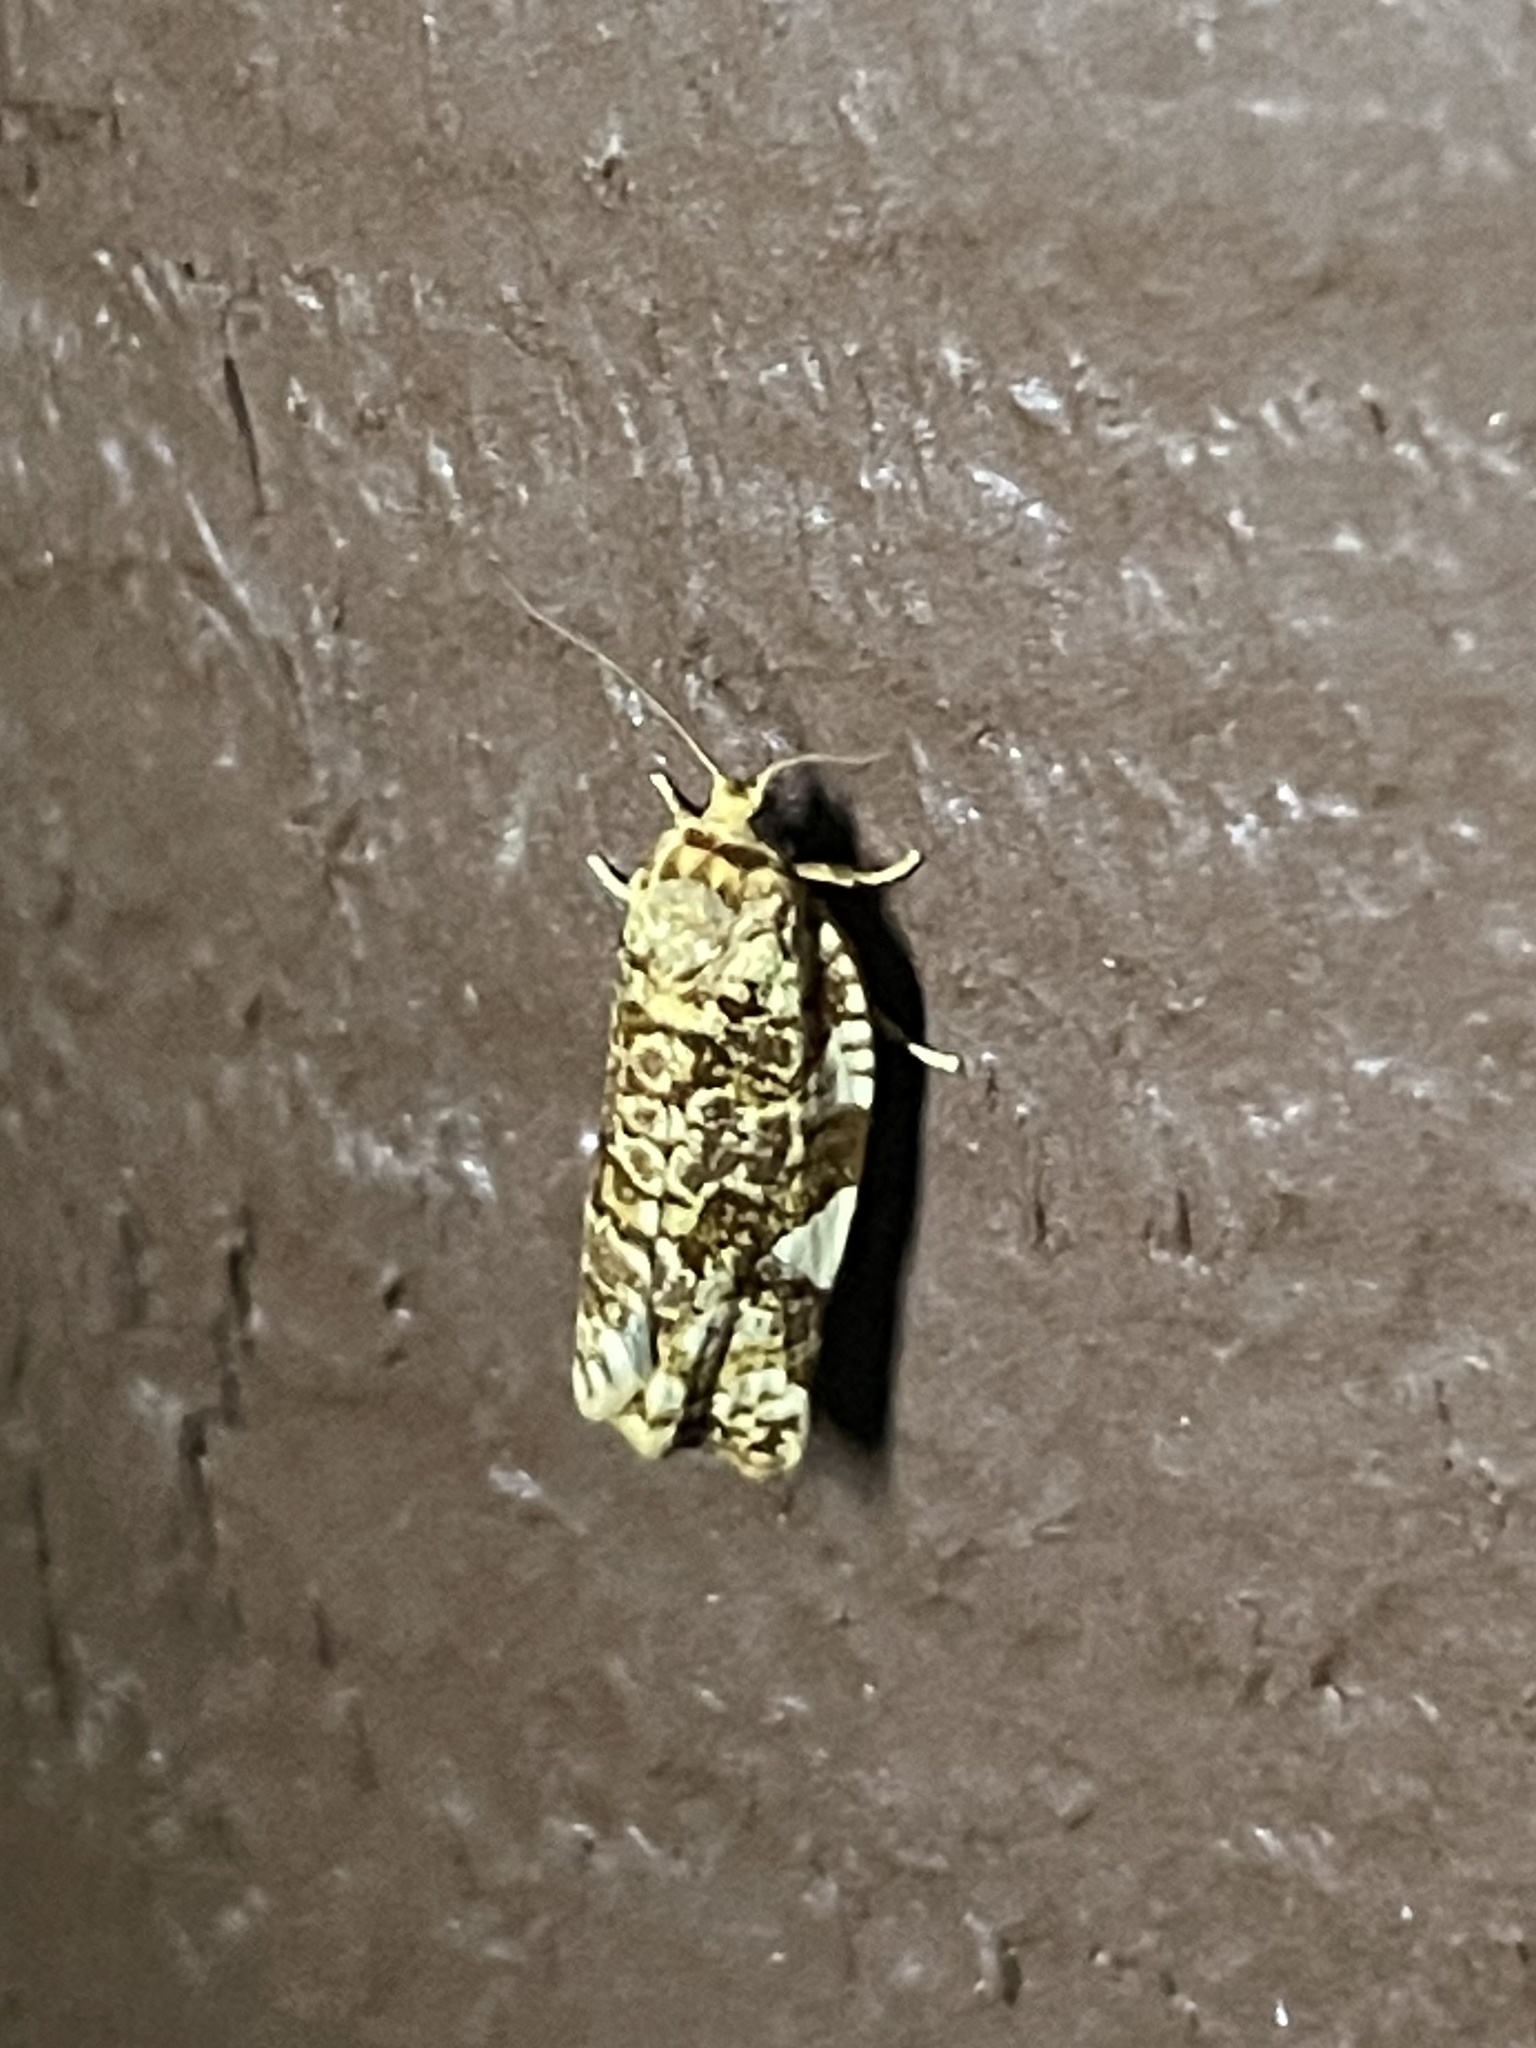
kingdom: Animalia
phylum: Arthropoda
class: Insecta
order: Lepidoptera
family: Tortricidae
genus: Archips
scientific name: Archips argyrospila
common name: Fruit-tree leafroller moth
